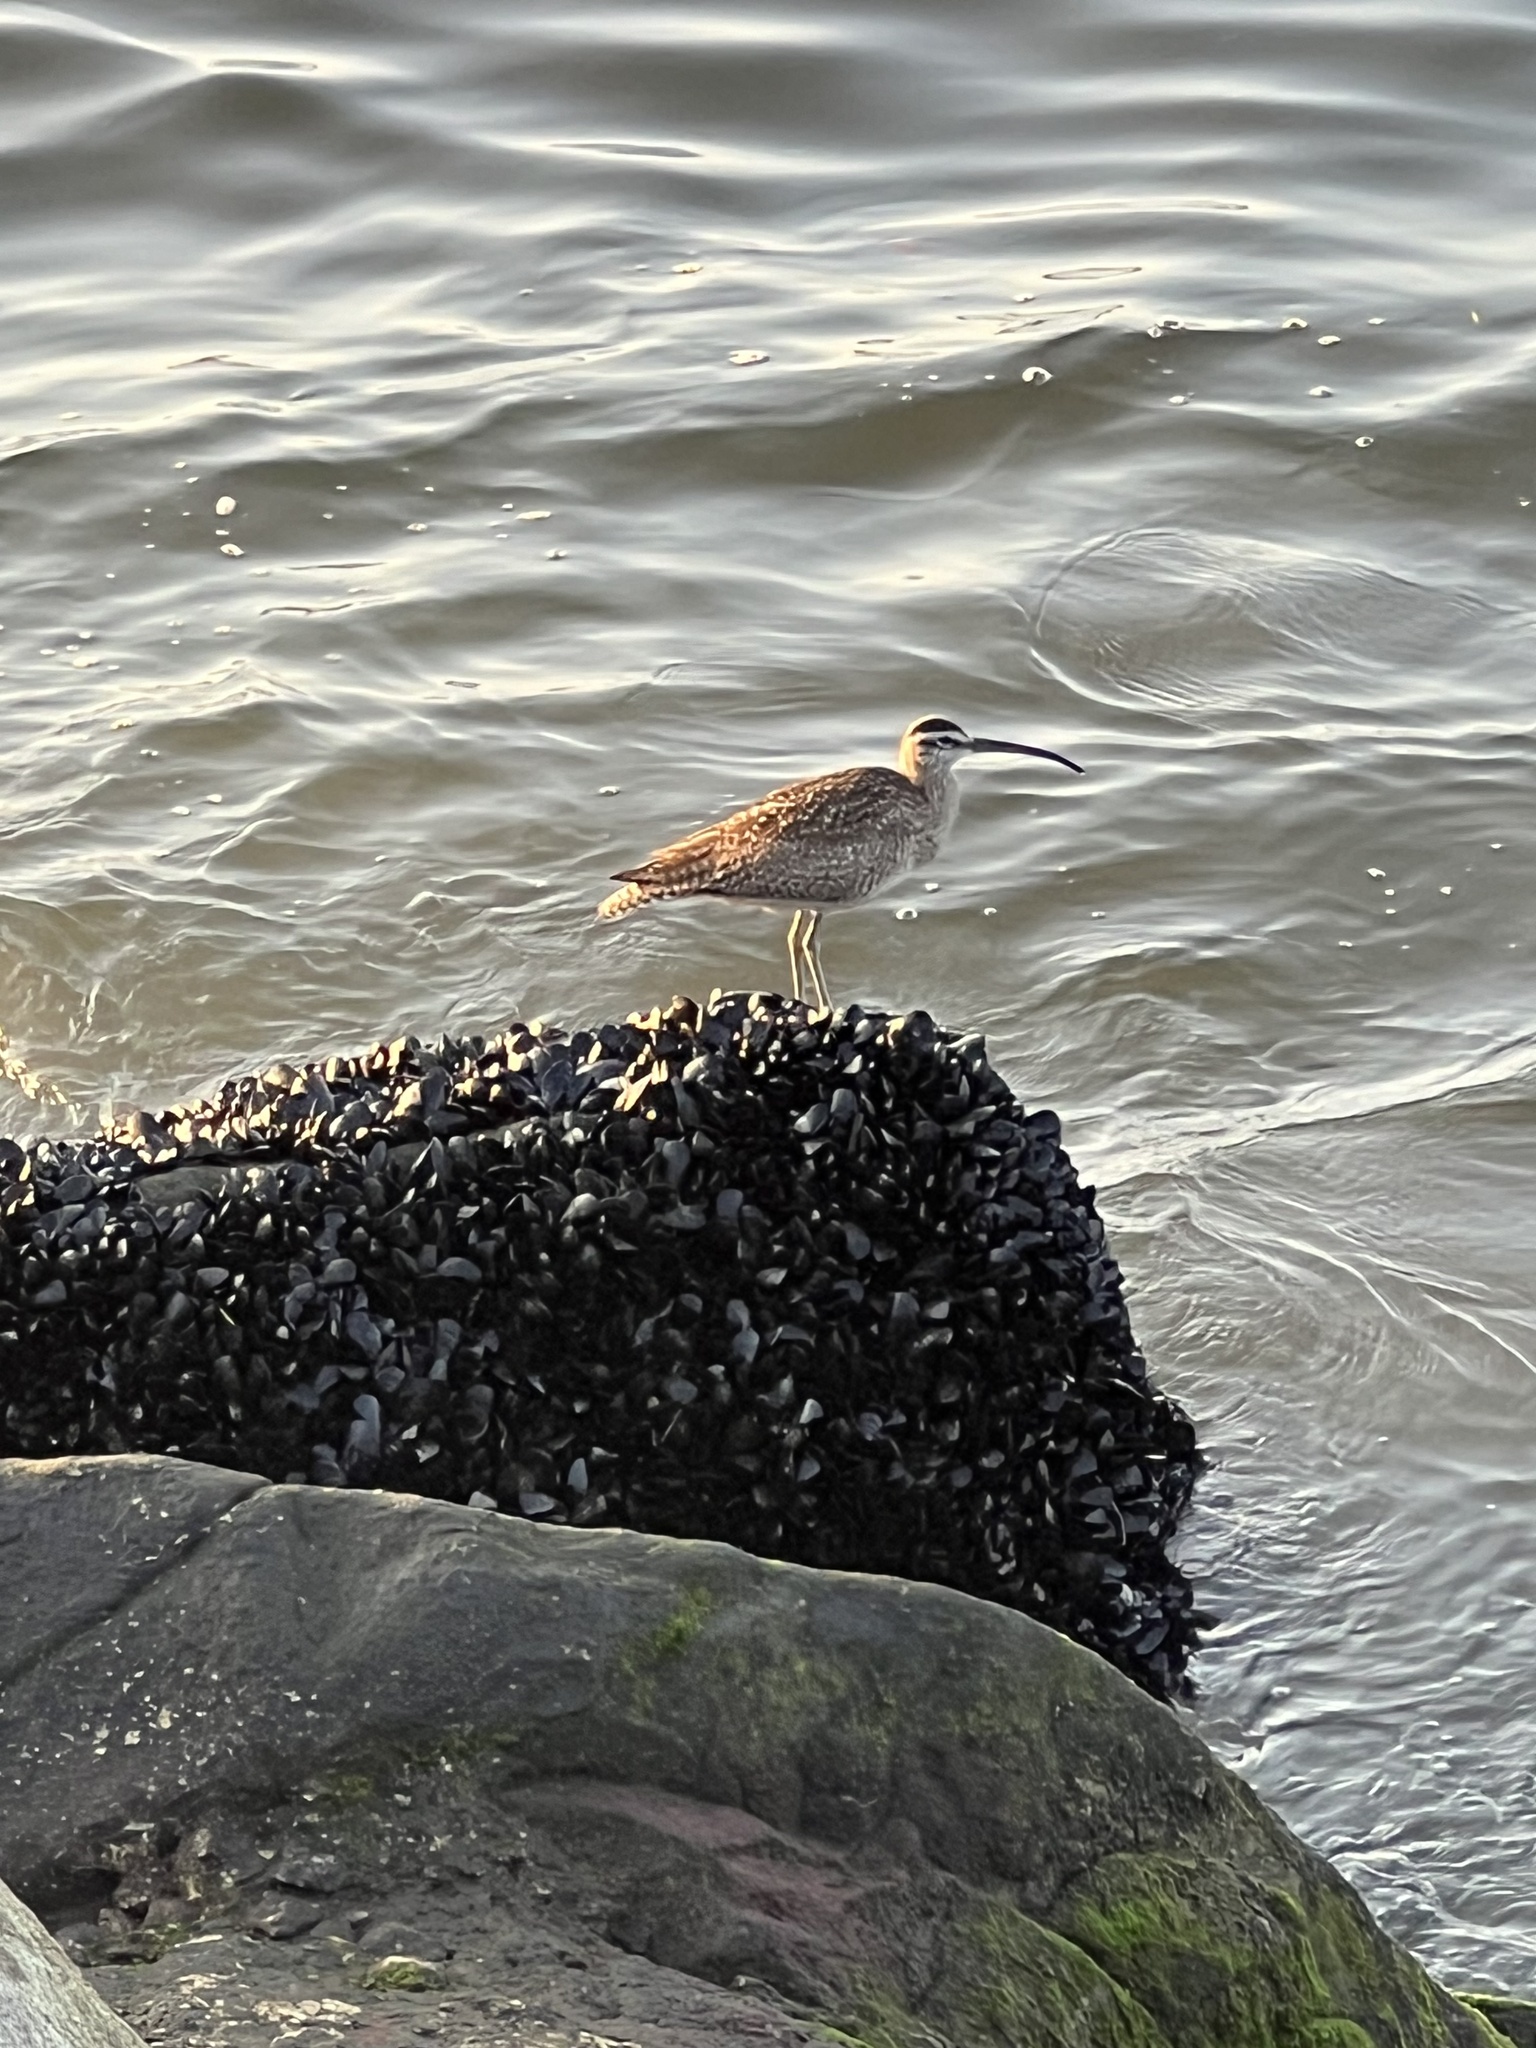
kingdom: Animalia
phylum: Chordata
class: Aves
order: Charadriiformes
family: Scolopacidae
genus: Numenius
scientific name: Numenius phaeopus
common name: Whimbrel
